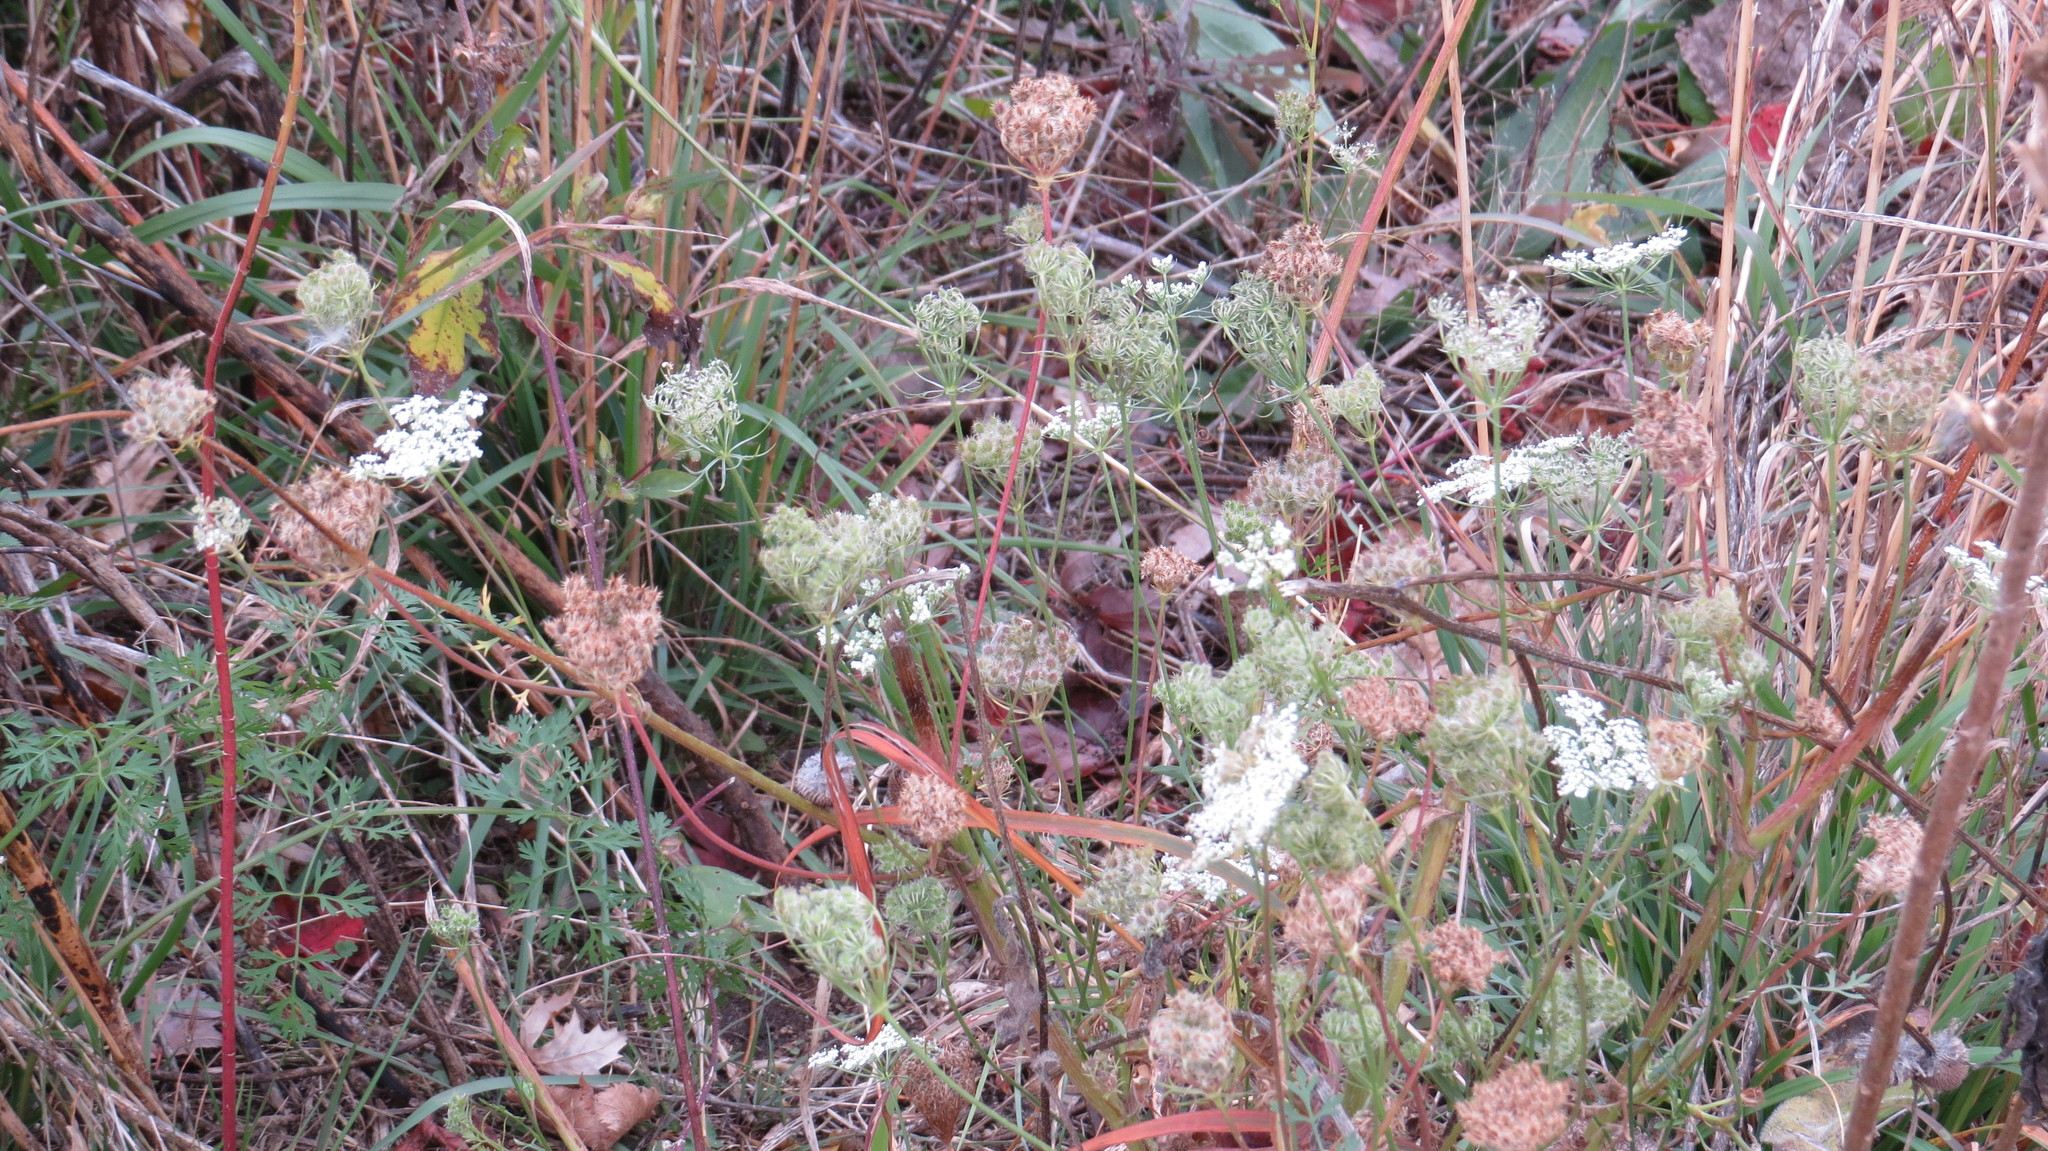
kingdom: Plantae
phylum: Tracheophyta
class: Magnoliopsida
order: Apiales
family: Apiaceae
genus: Daucus
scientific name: Daucus carota
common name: Wild carrot
